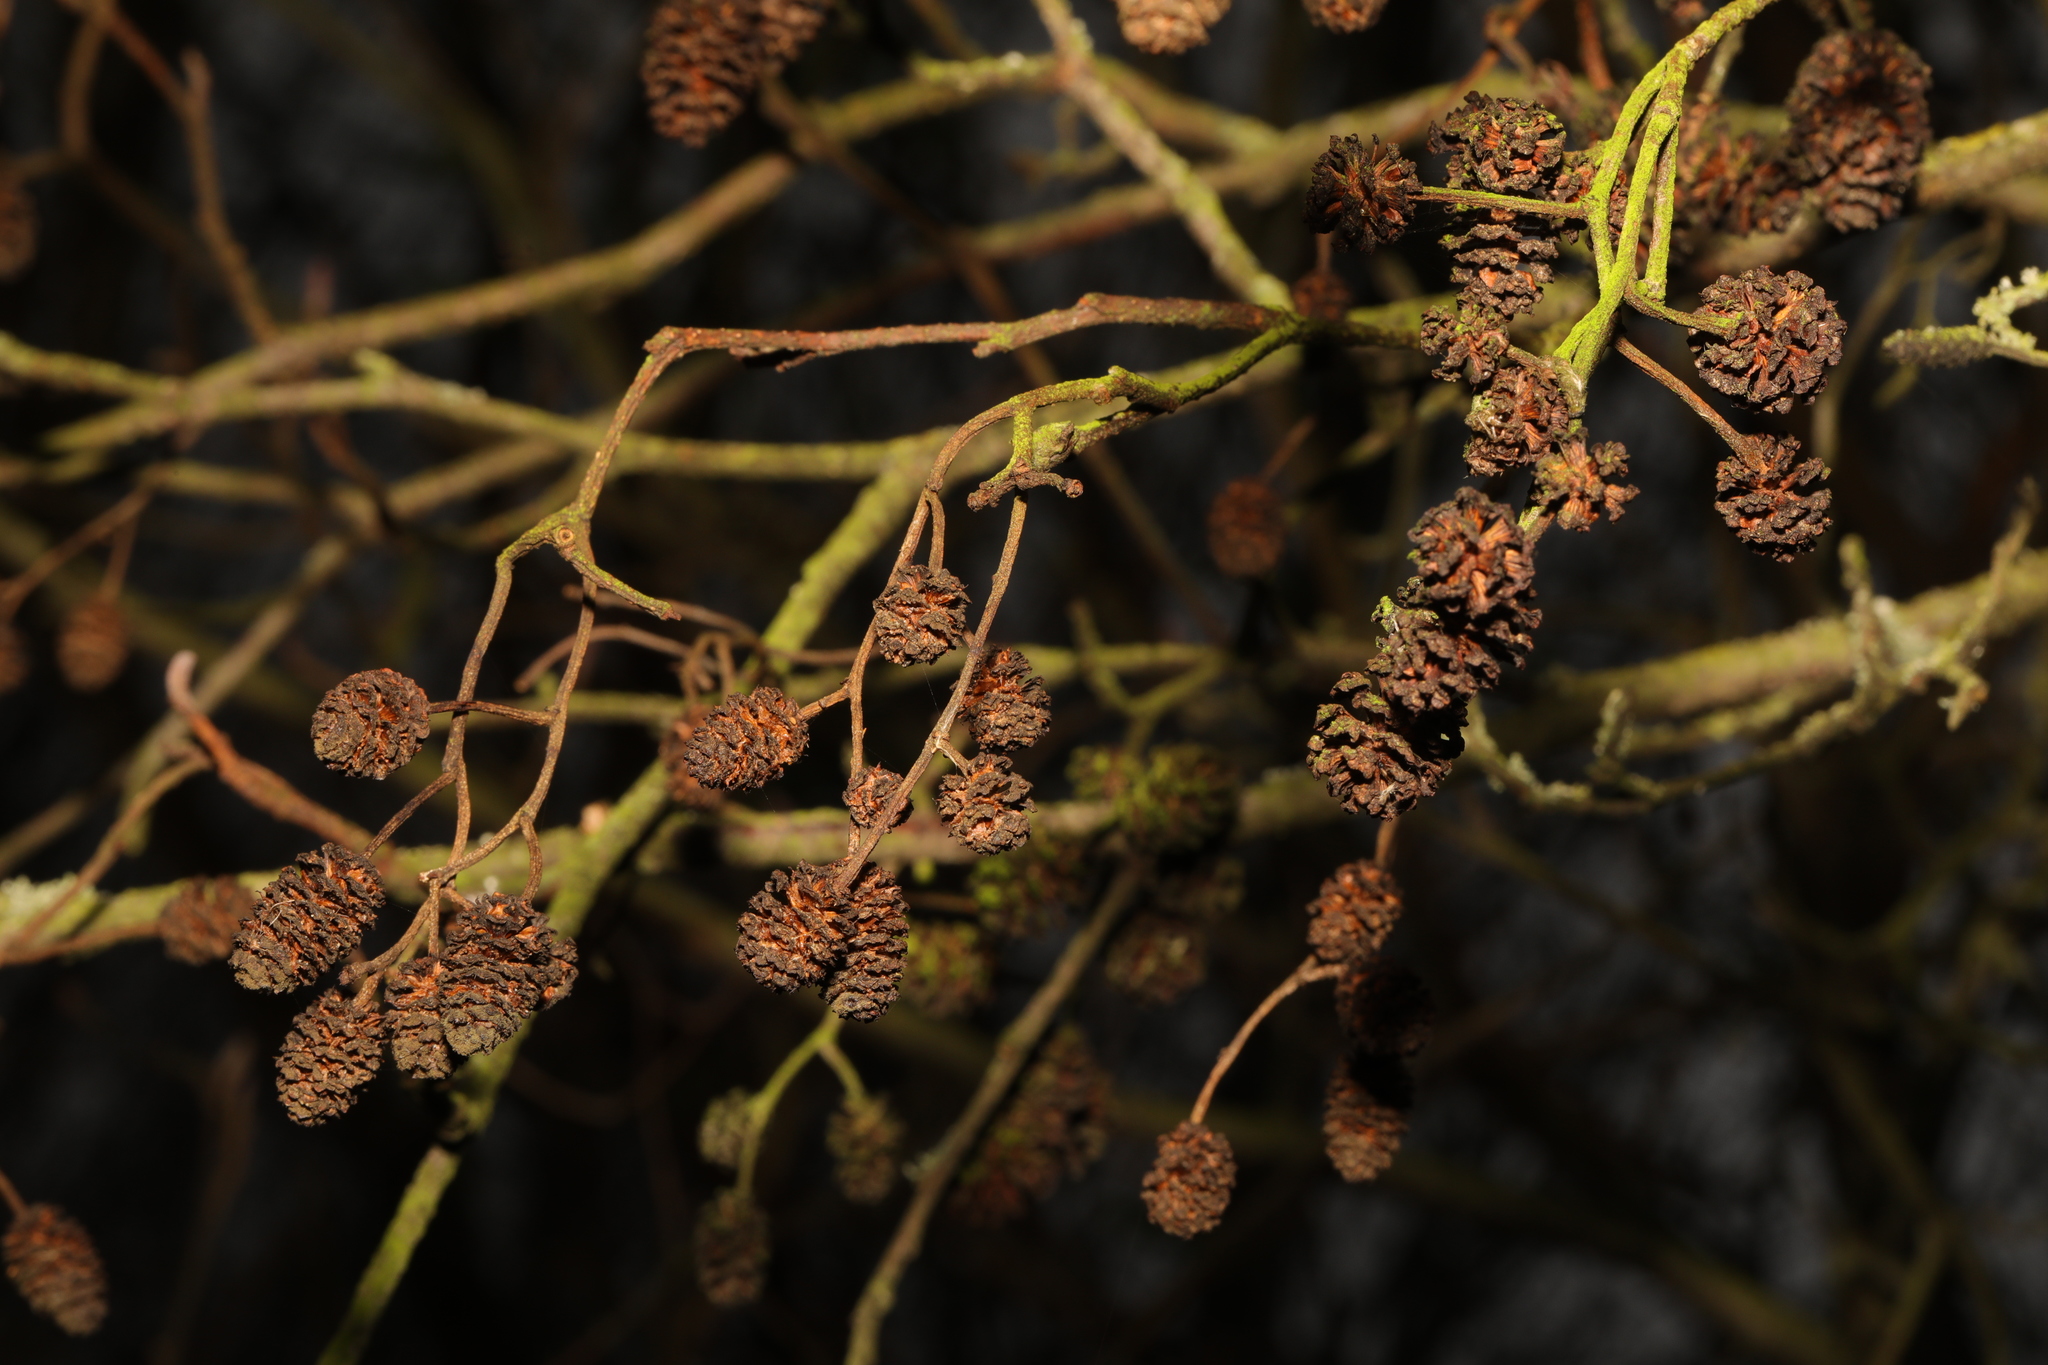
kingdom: Plantae
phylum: Tracheophyta
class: Magnoliopsida
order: Fagales
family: Betulaceae
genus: Alnus
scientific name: Alnus glutinosa
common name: Black alder
